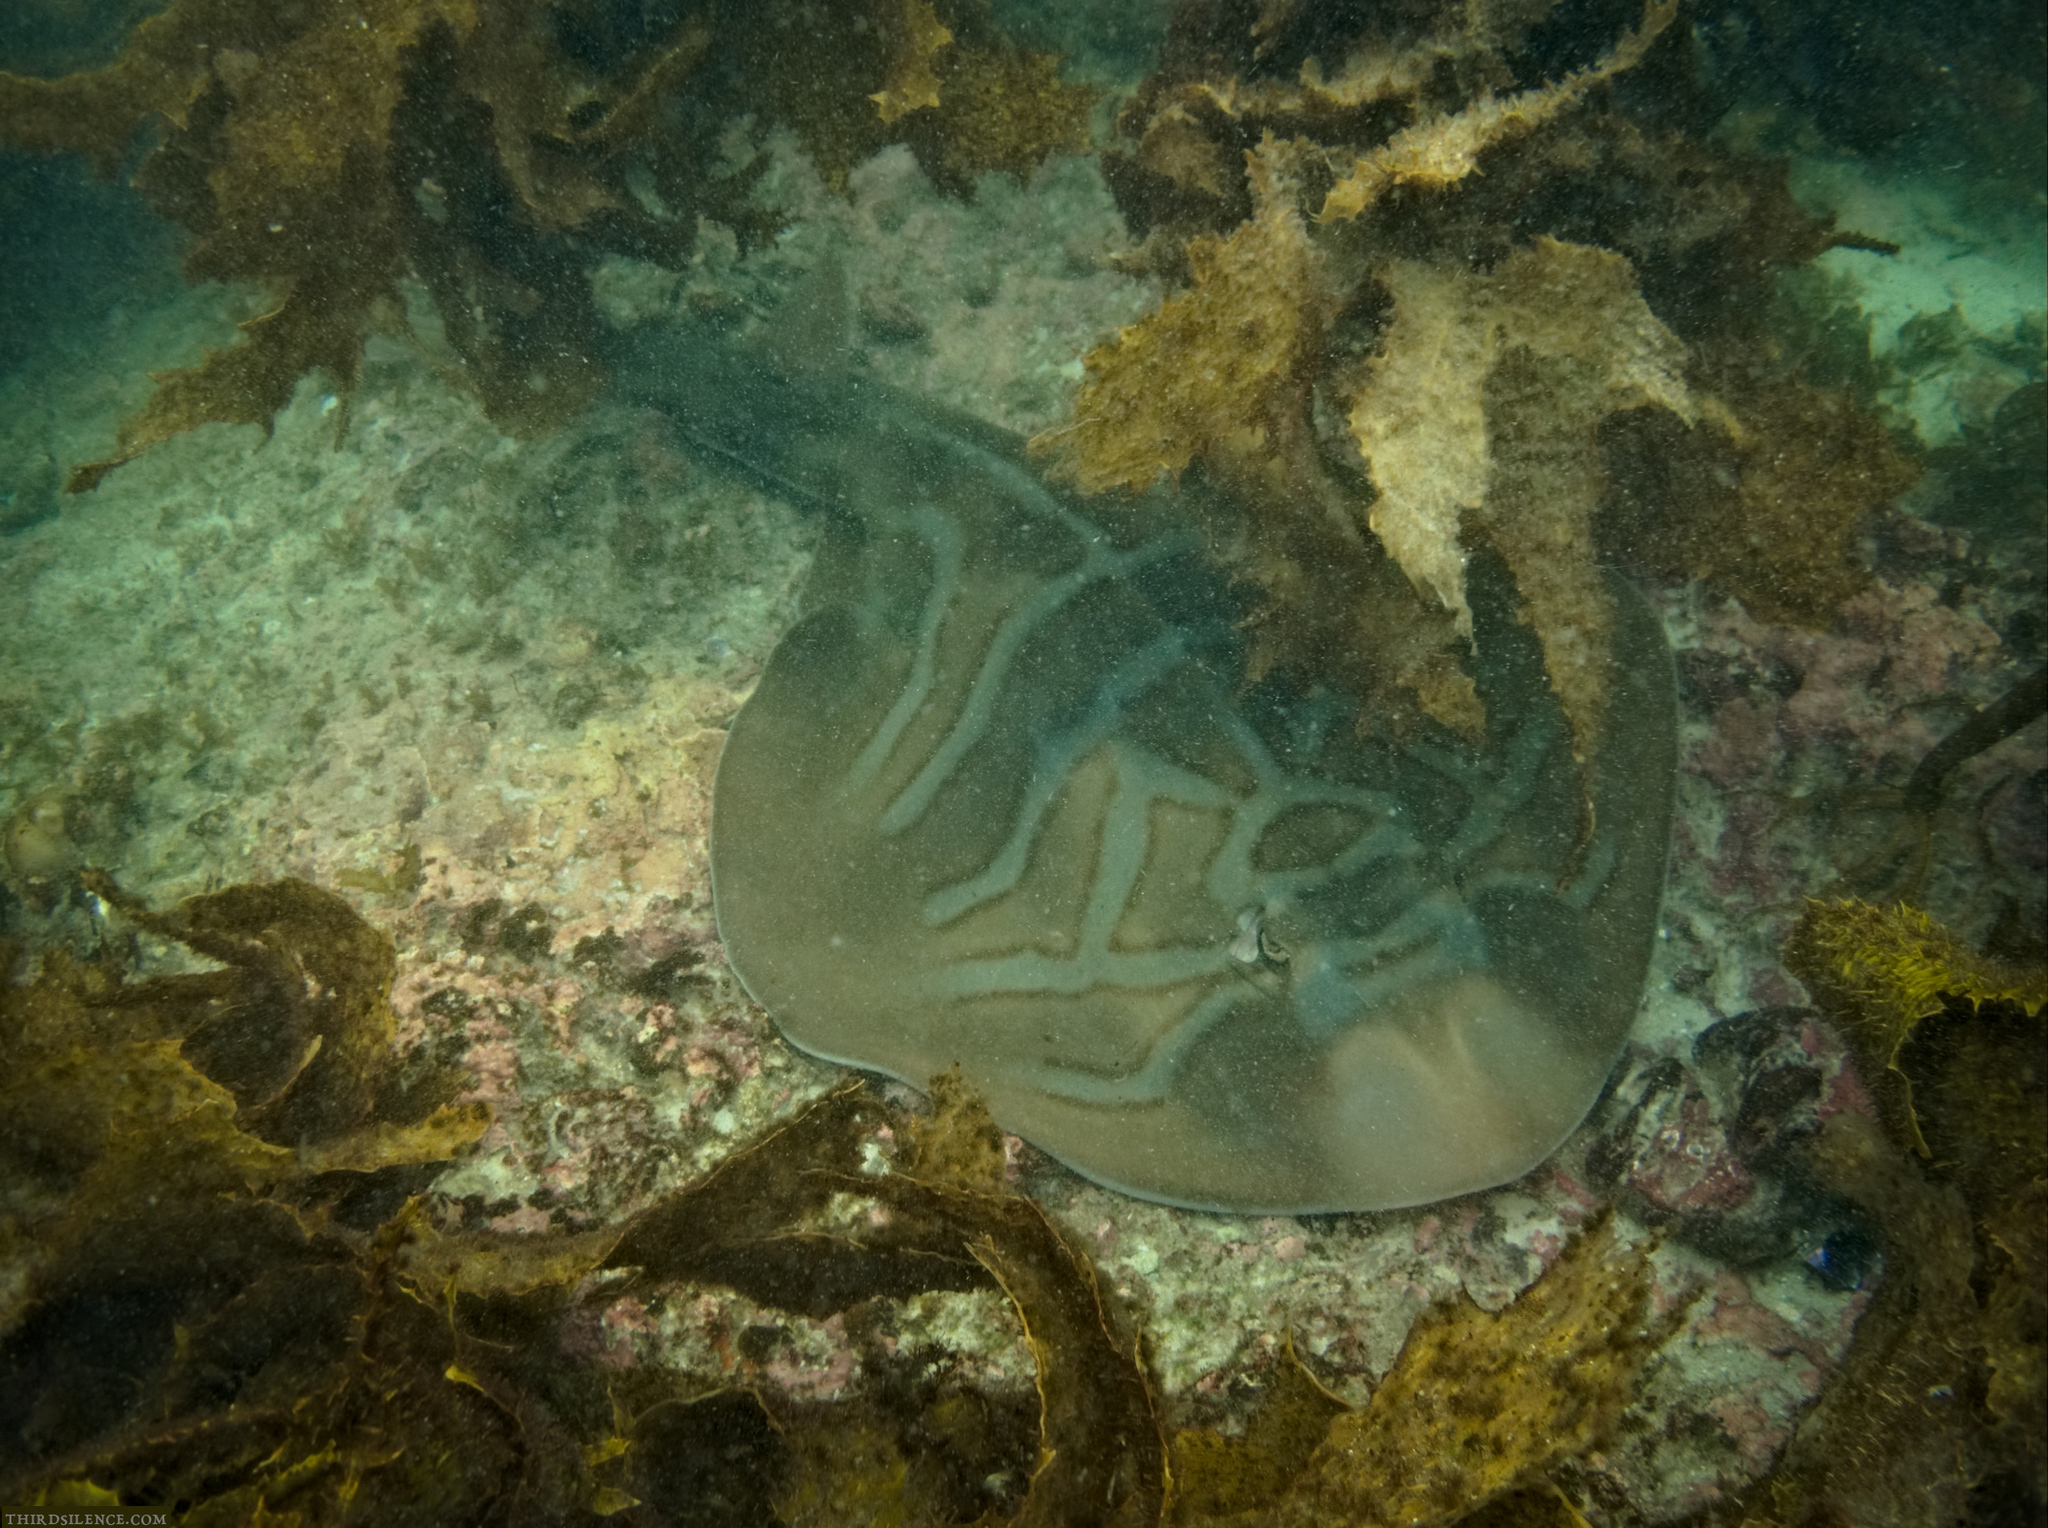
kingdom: Animalia
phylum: Chordata
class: Elasmobranchii
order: Rhinopristiformes
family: Rhinobatidae
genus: Trygonorrhina
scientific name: Trygonorrhina fasciata
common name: Southern fiddler
